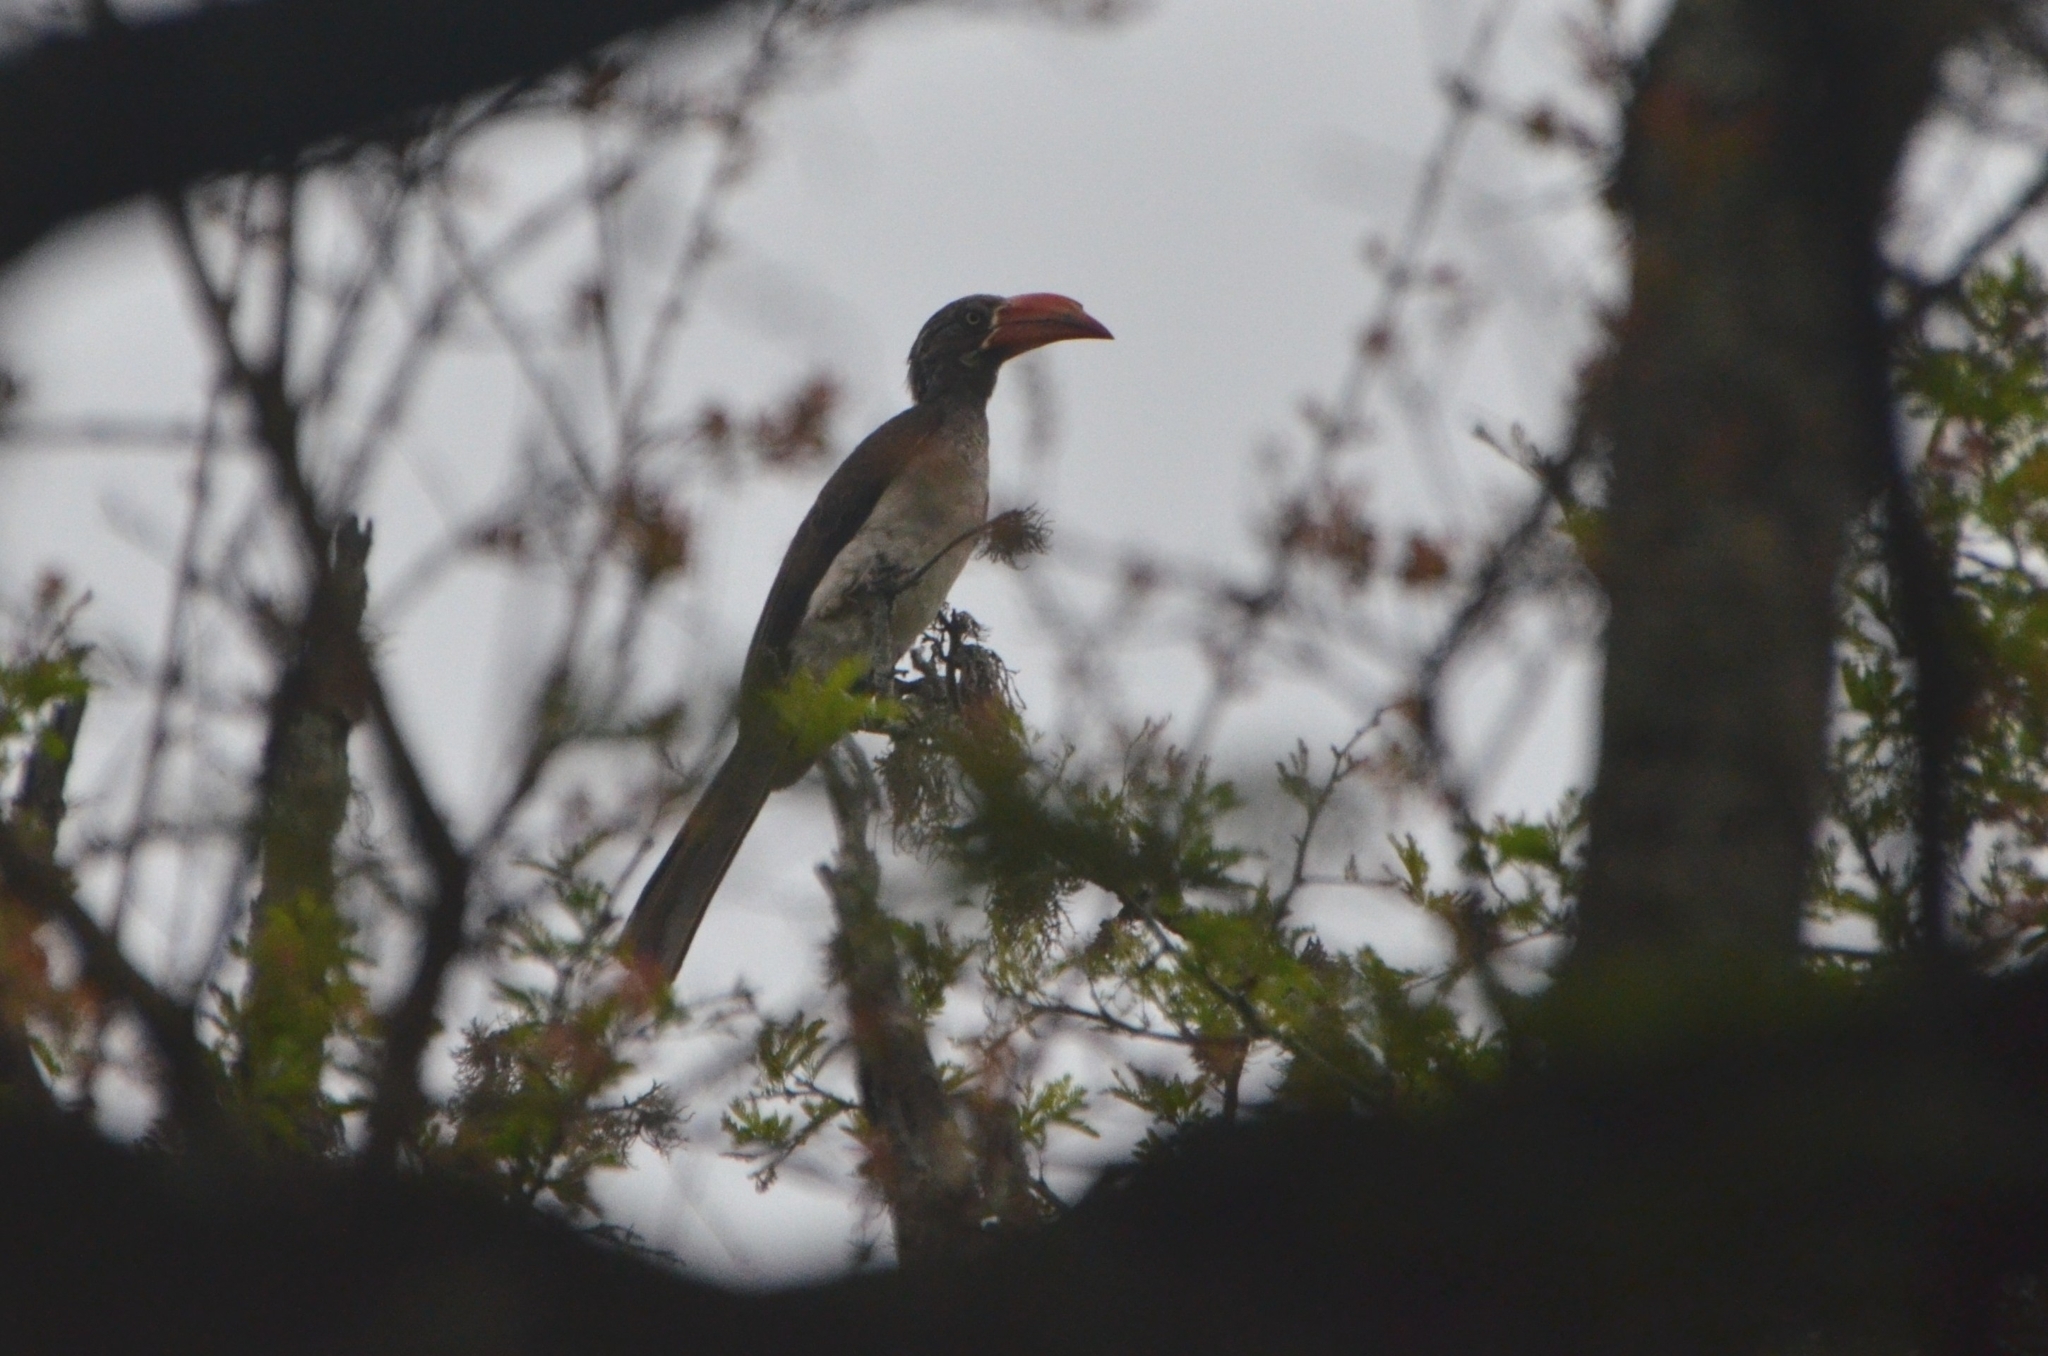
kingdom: Animalia
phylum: Chordata
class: Aves
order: Bucerotiformes
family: Bucerotidae
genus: Lophoceros
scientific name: Lophoceros alboterminatus
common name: Crowned hornbill
